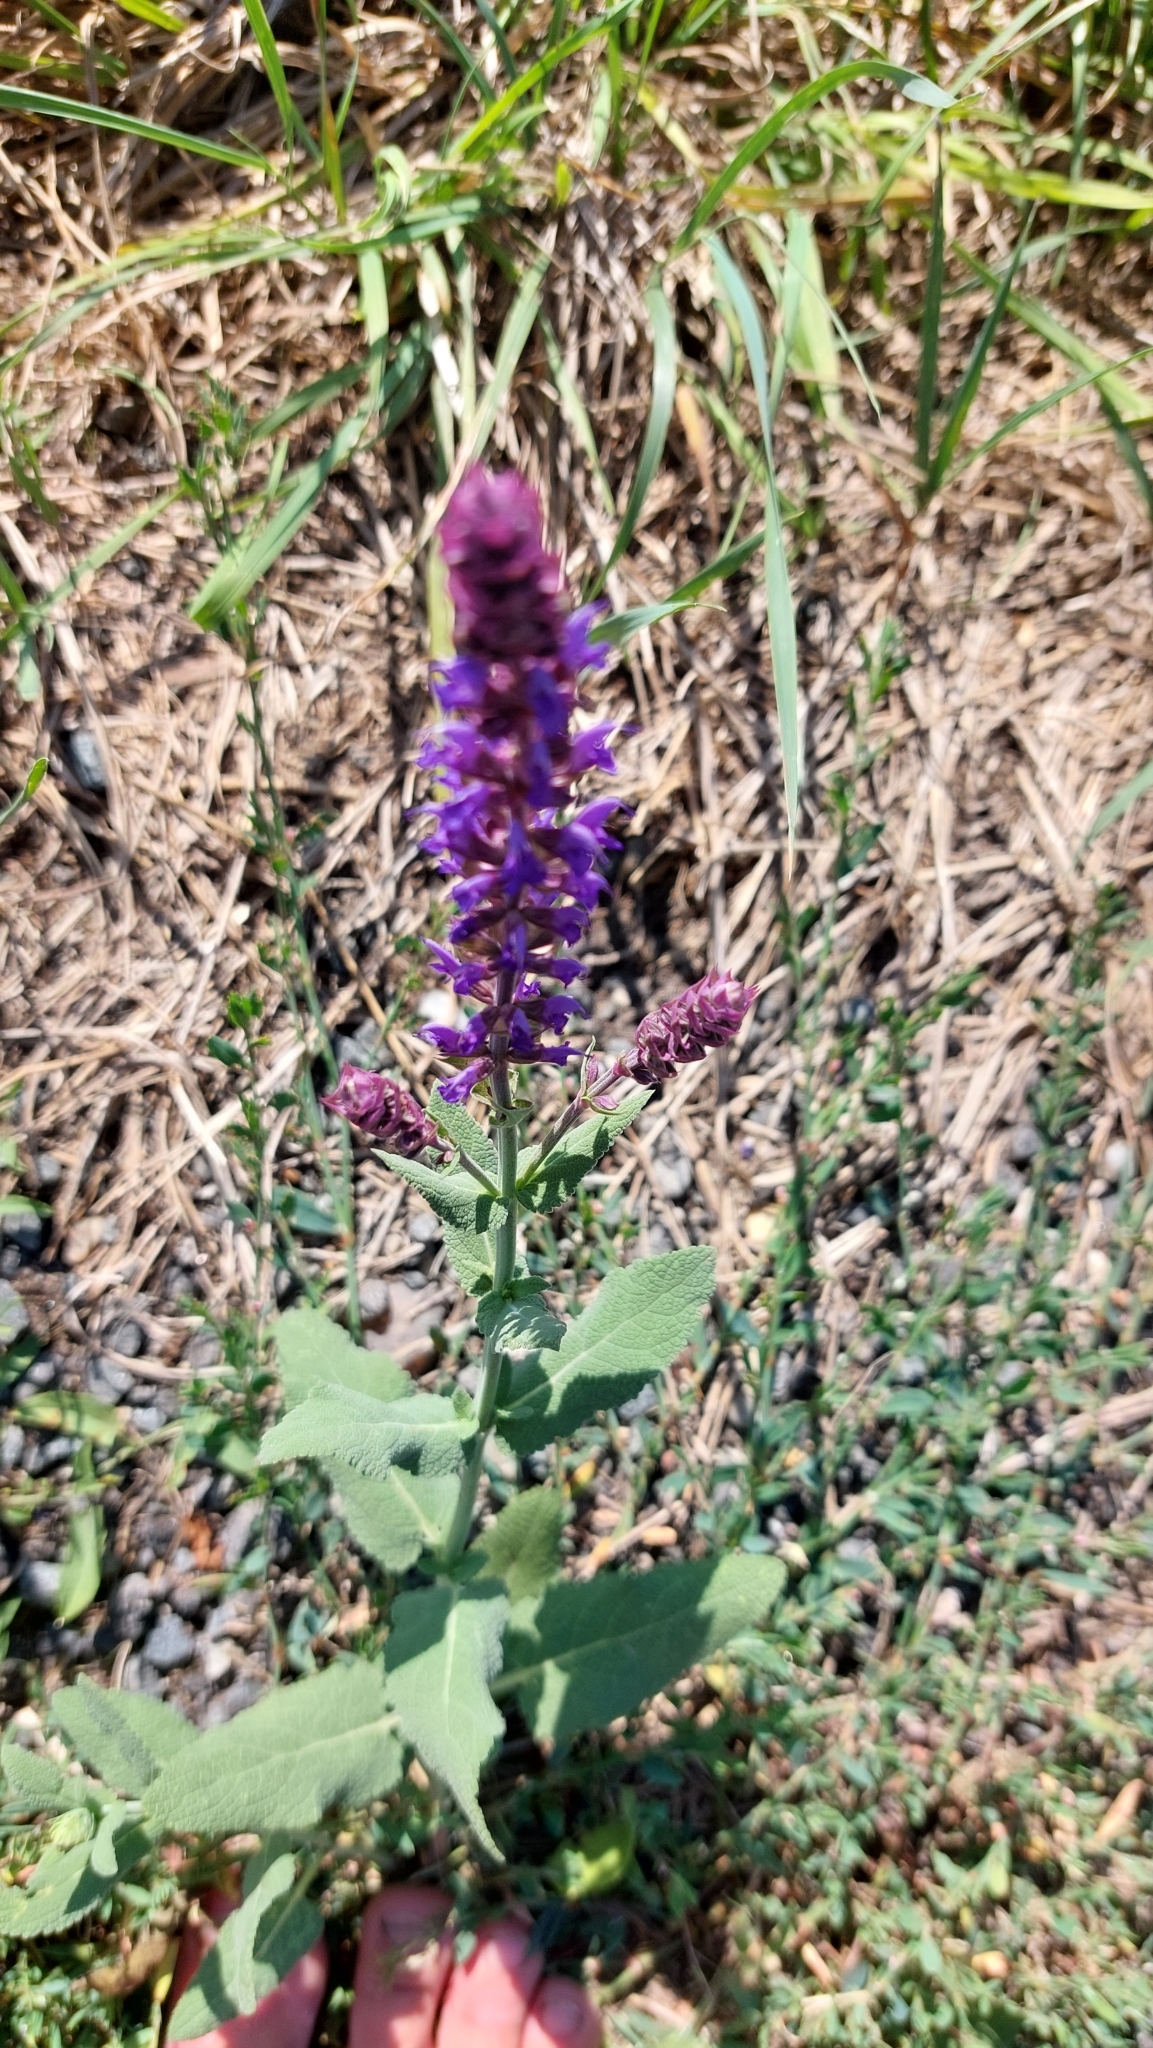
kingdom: Plantae
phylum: Tracheophyta
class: Magnoliopsida
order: Lamiales
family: Lamiaceae
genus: Salvia
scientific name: Salvia nemorosa
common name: Balkan clary
